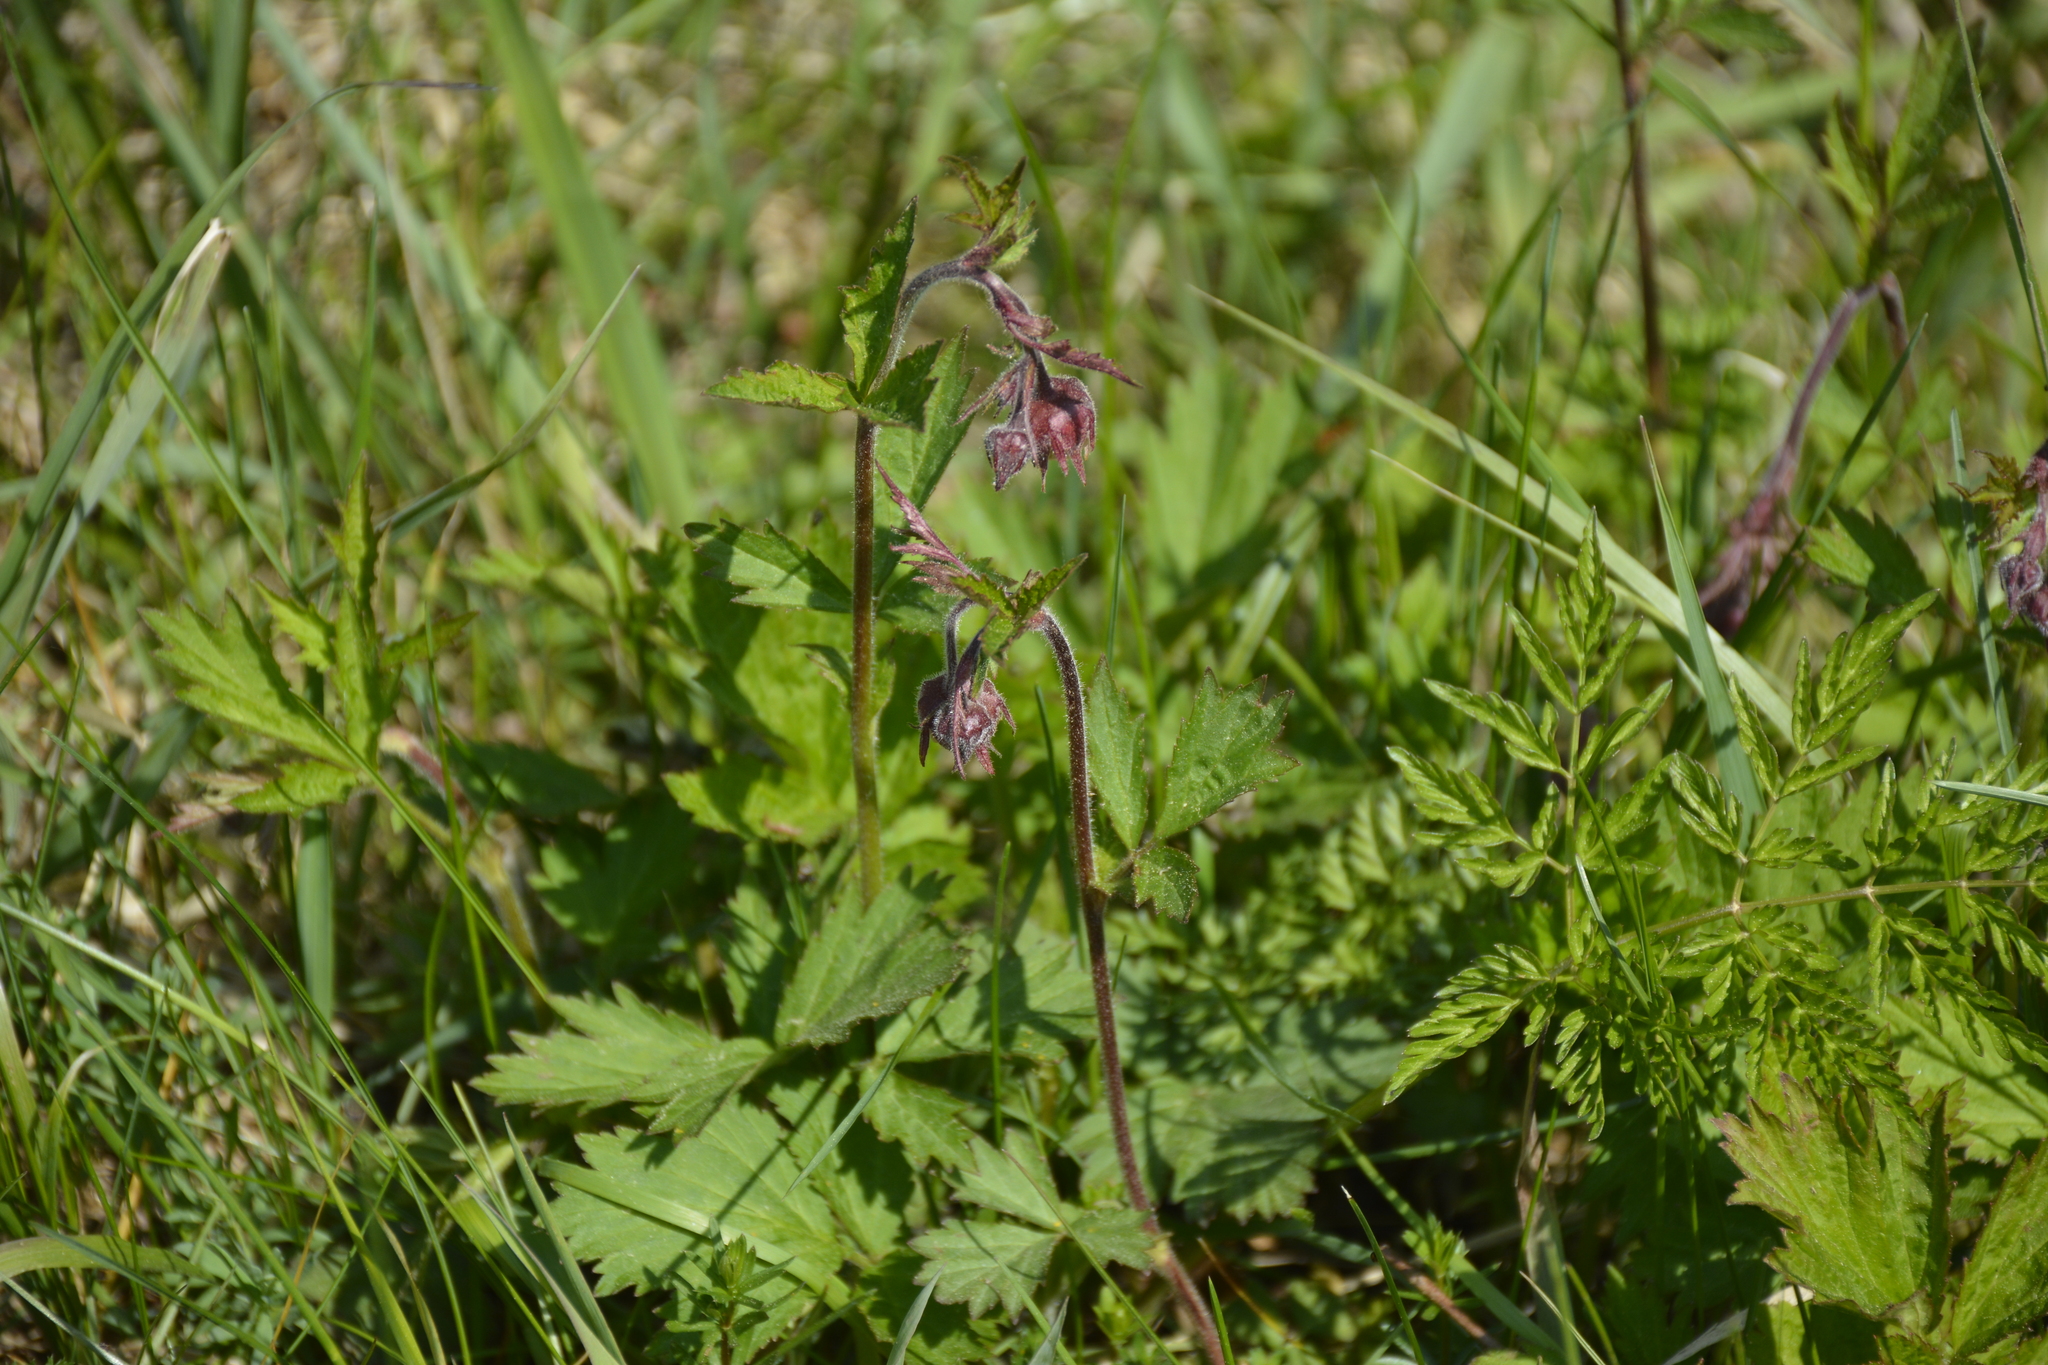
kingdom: Plantae
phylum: Tracheophyta
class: Magnoliopsida
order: Rosales
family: Rosaceae
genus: Geum
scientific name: Geum rivale
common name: Water avens
